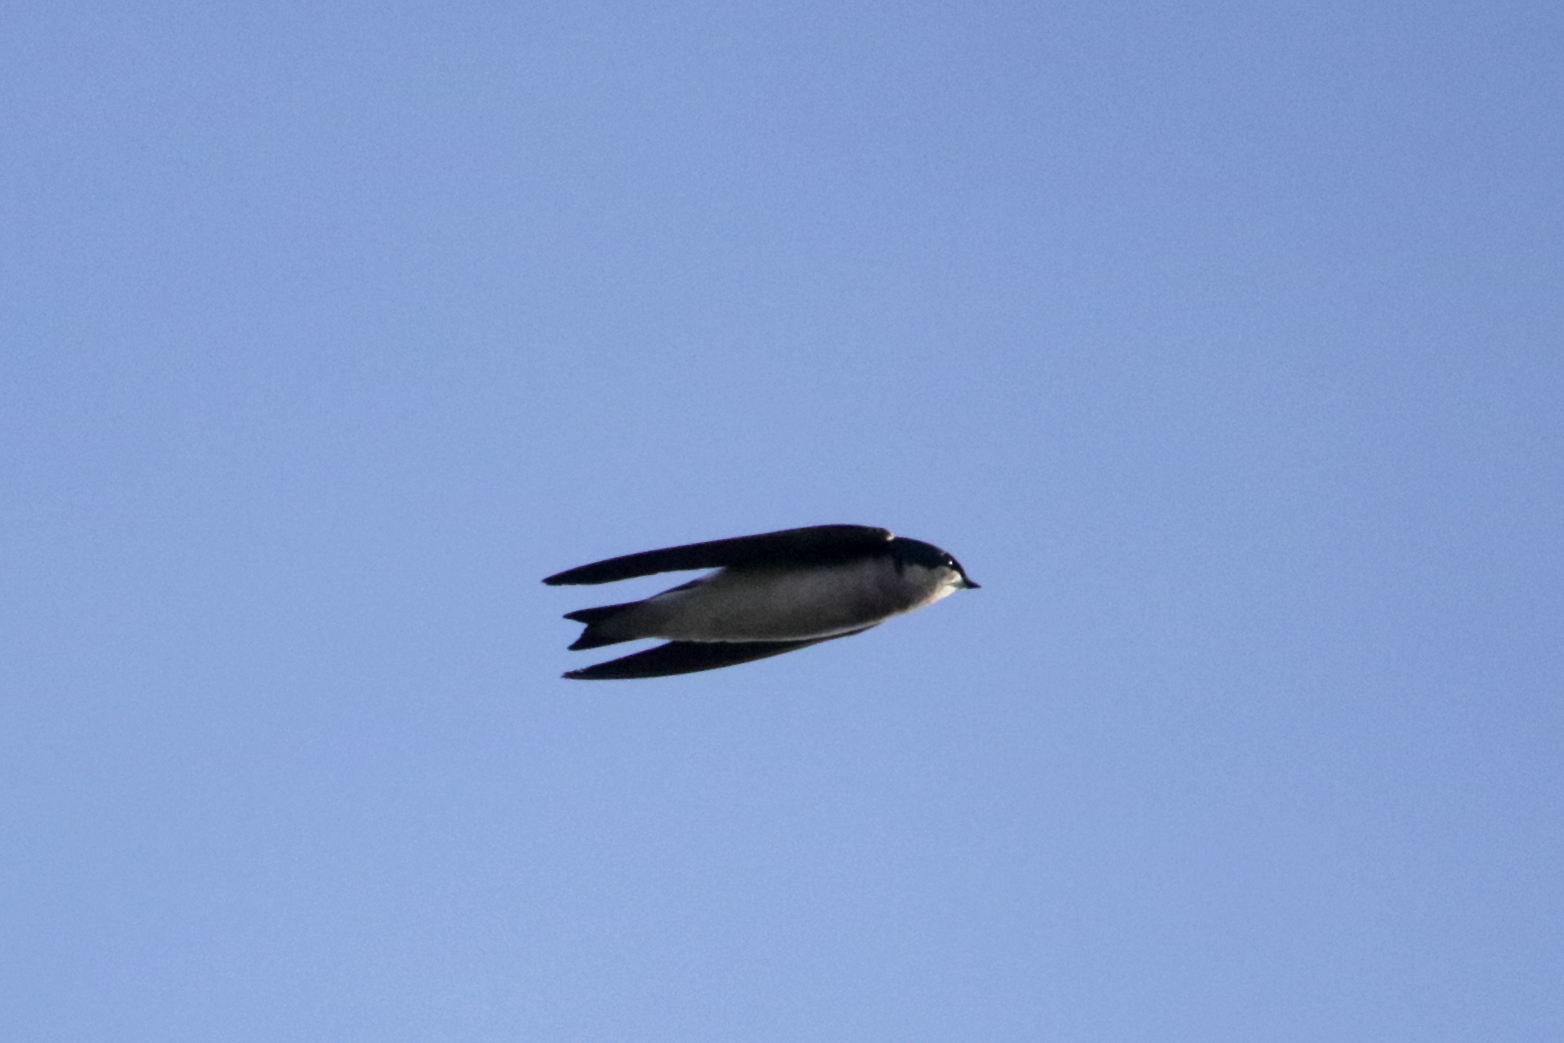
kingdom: Animalia
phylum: Chordata
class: Aves
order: Passeriformes
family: Hirundinidae
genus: Tachycineta
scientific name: Tachycineta bicolor
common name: Tree swallow
